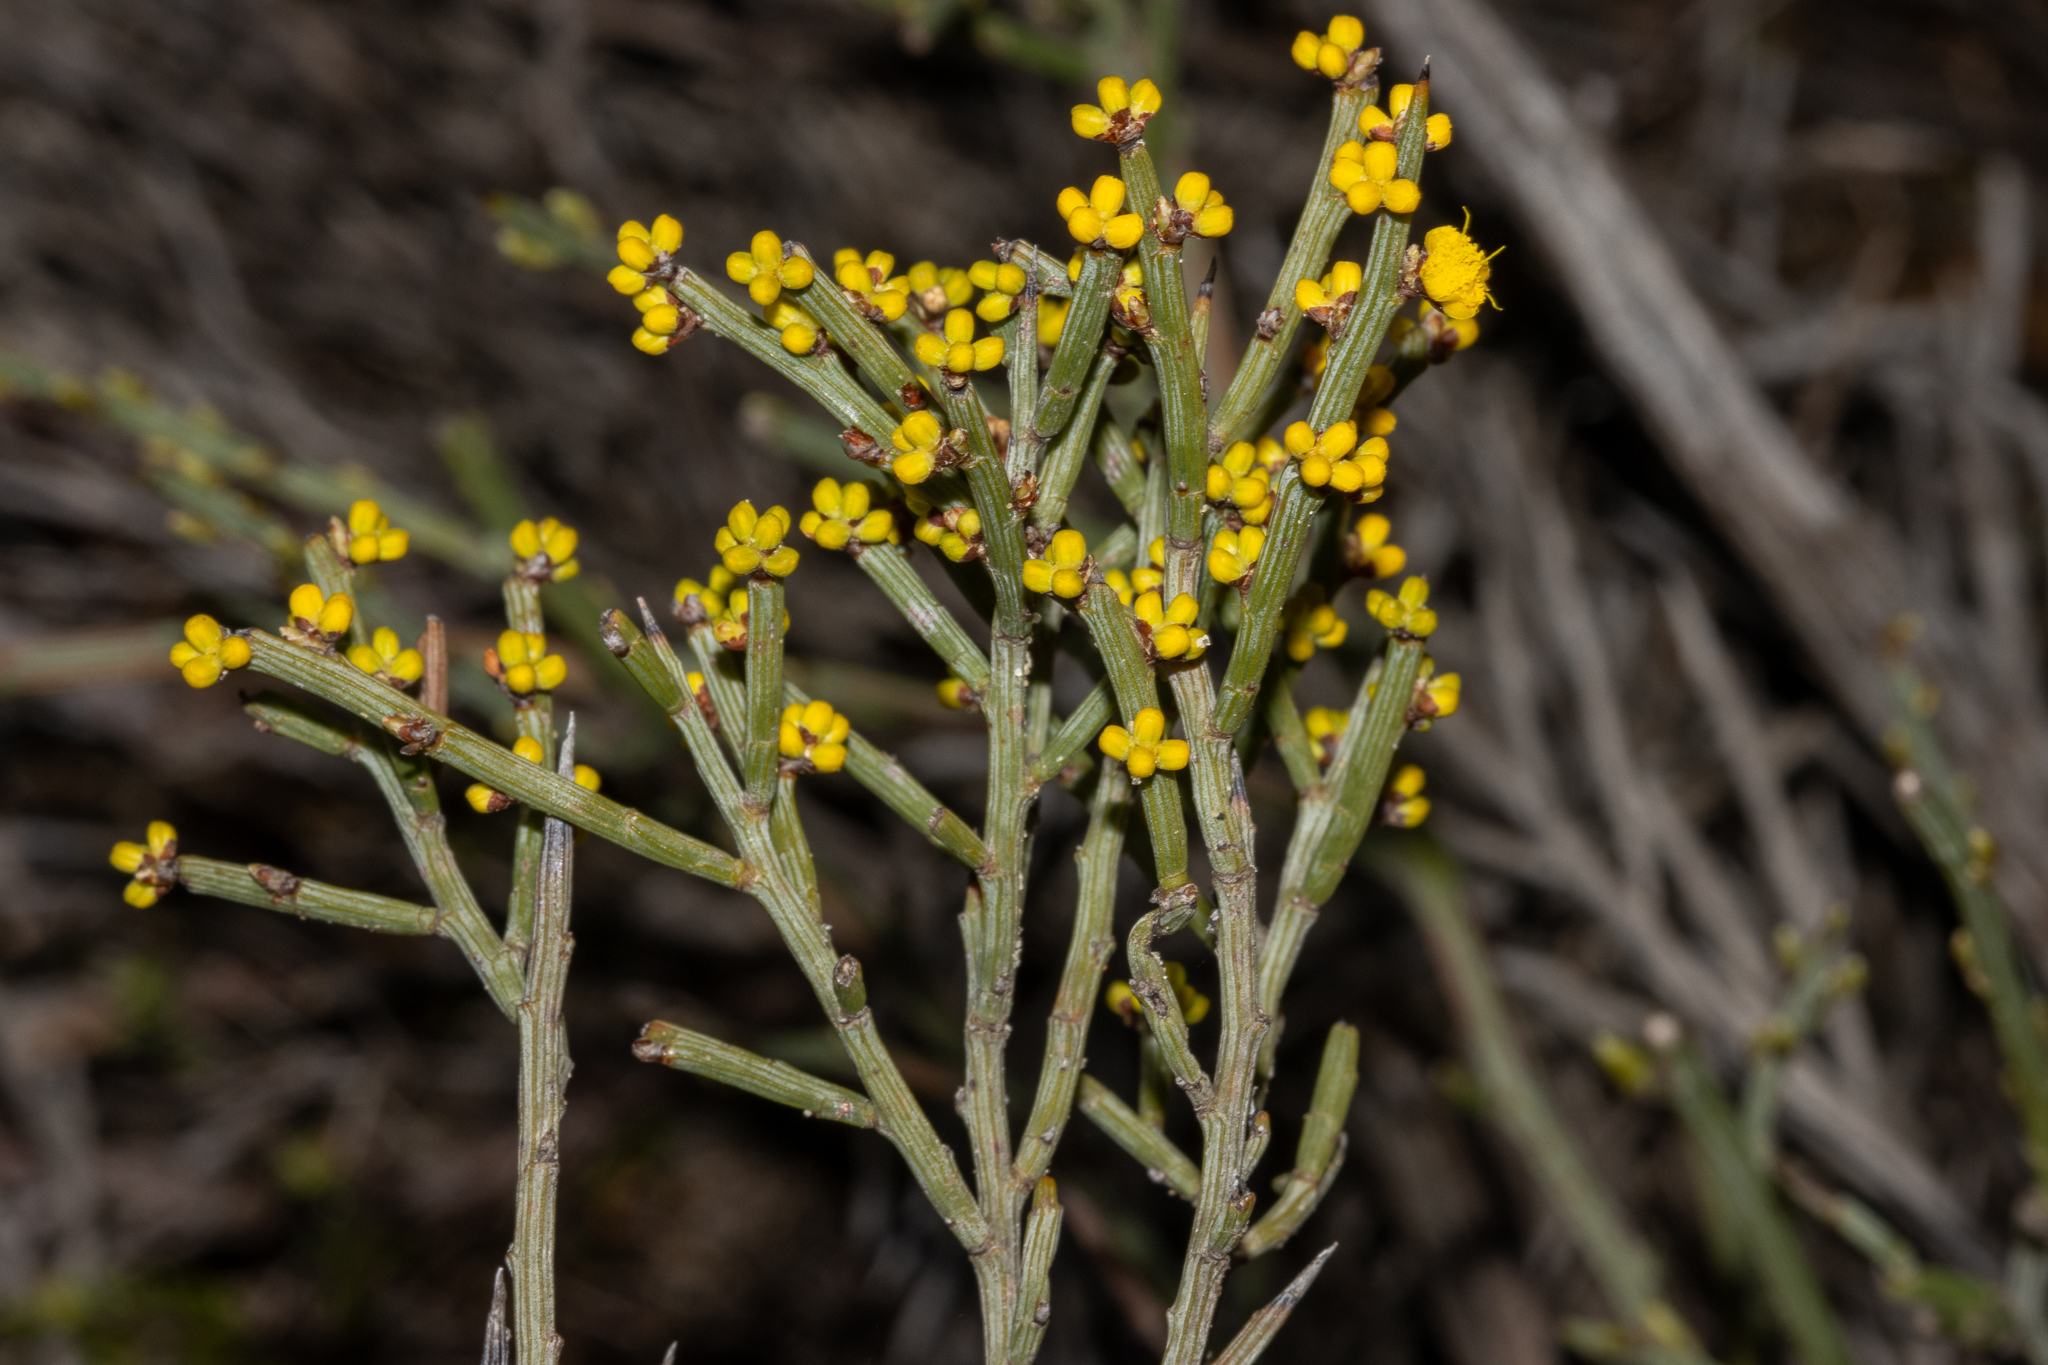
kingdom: Plantae
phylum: Tracheophyta
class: Magnoliopsida
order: Fabales
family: Fabaceae
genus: Acacia
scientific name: Acacia spinescens
